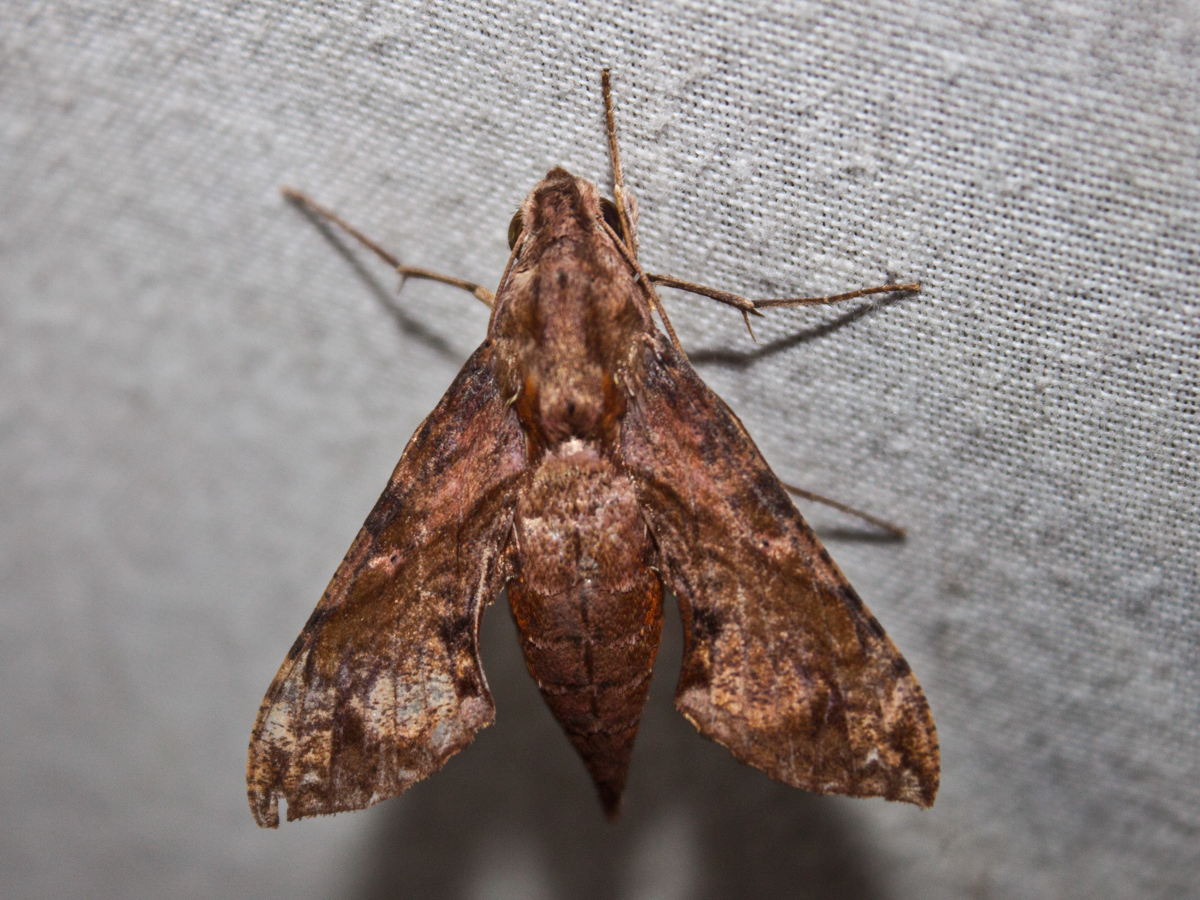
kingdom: Animalia
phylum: Arthropoda
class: Insecta
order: Lepidoptera
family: Sphingidae
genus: Eupanacra
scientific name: Eupanacra mydon
